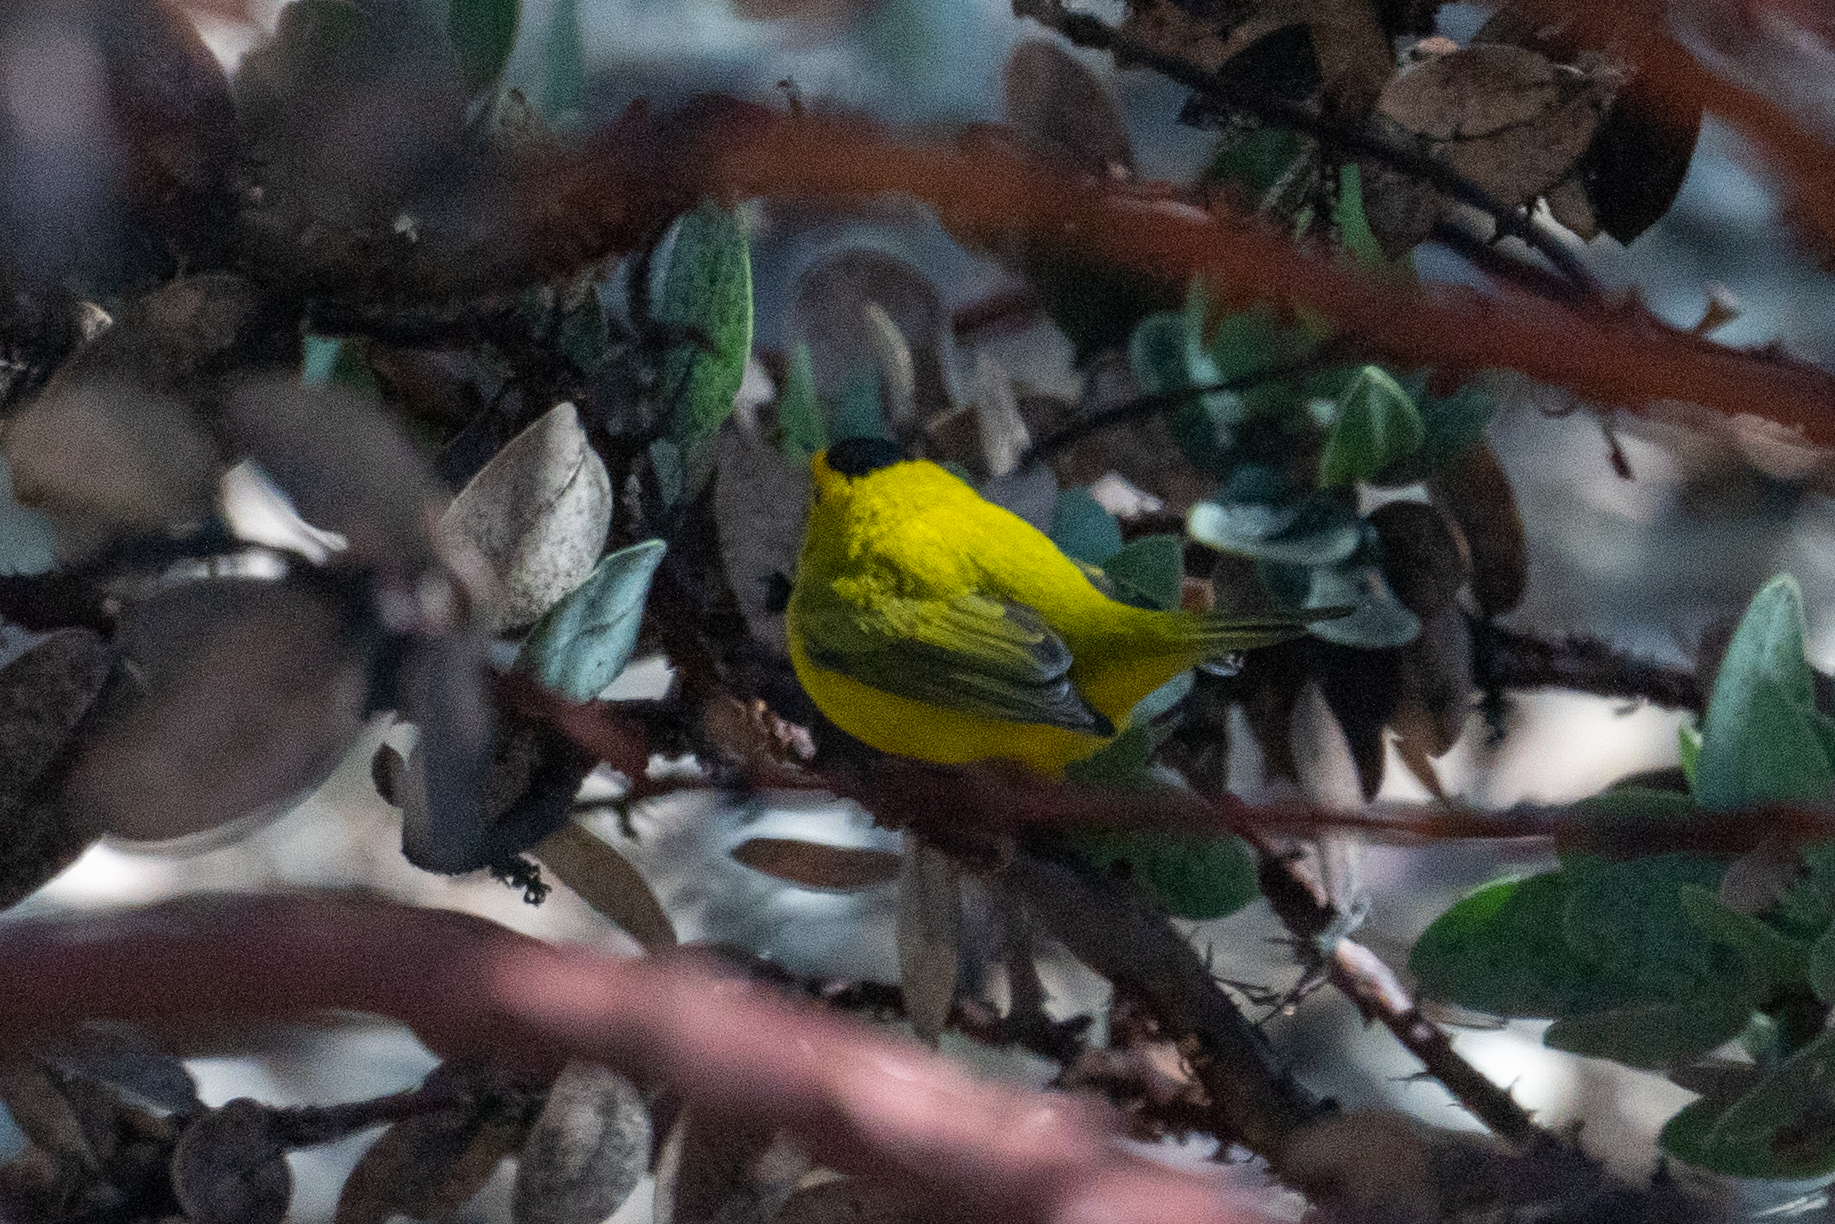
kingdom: Animalia
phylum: Chordata
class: Aves
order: Passeriformes
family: Parulidae
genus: Cardellina
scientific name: Cardellina pusilla
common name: Wilson's warbler
